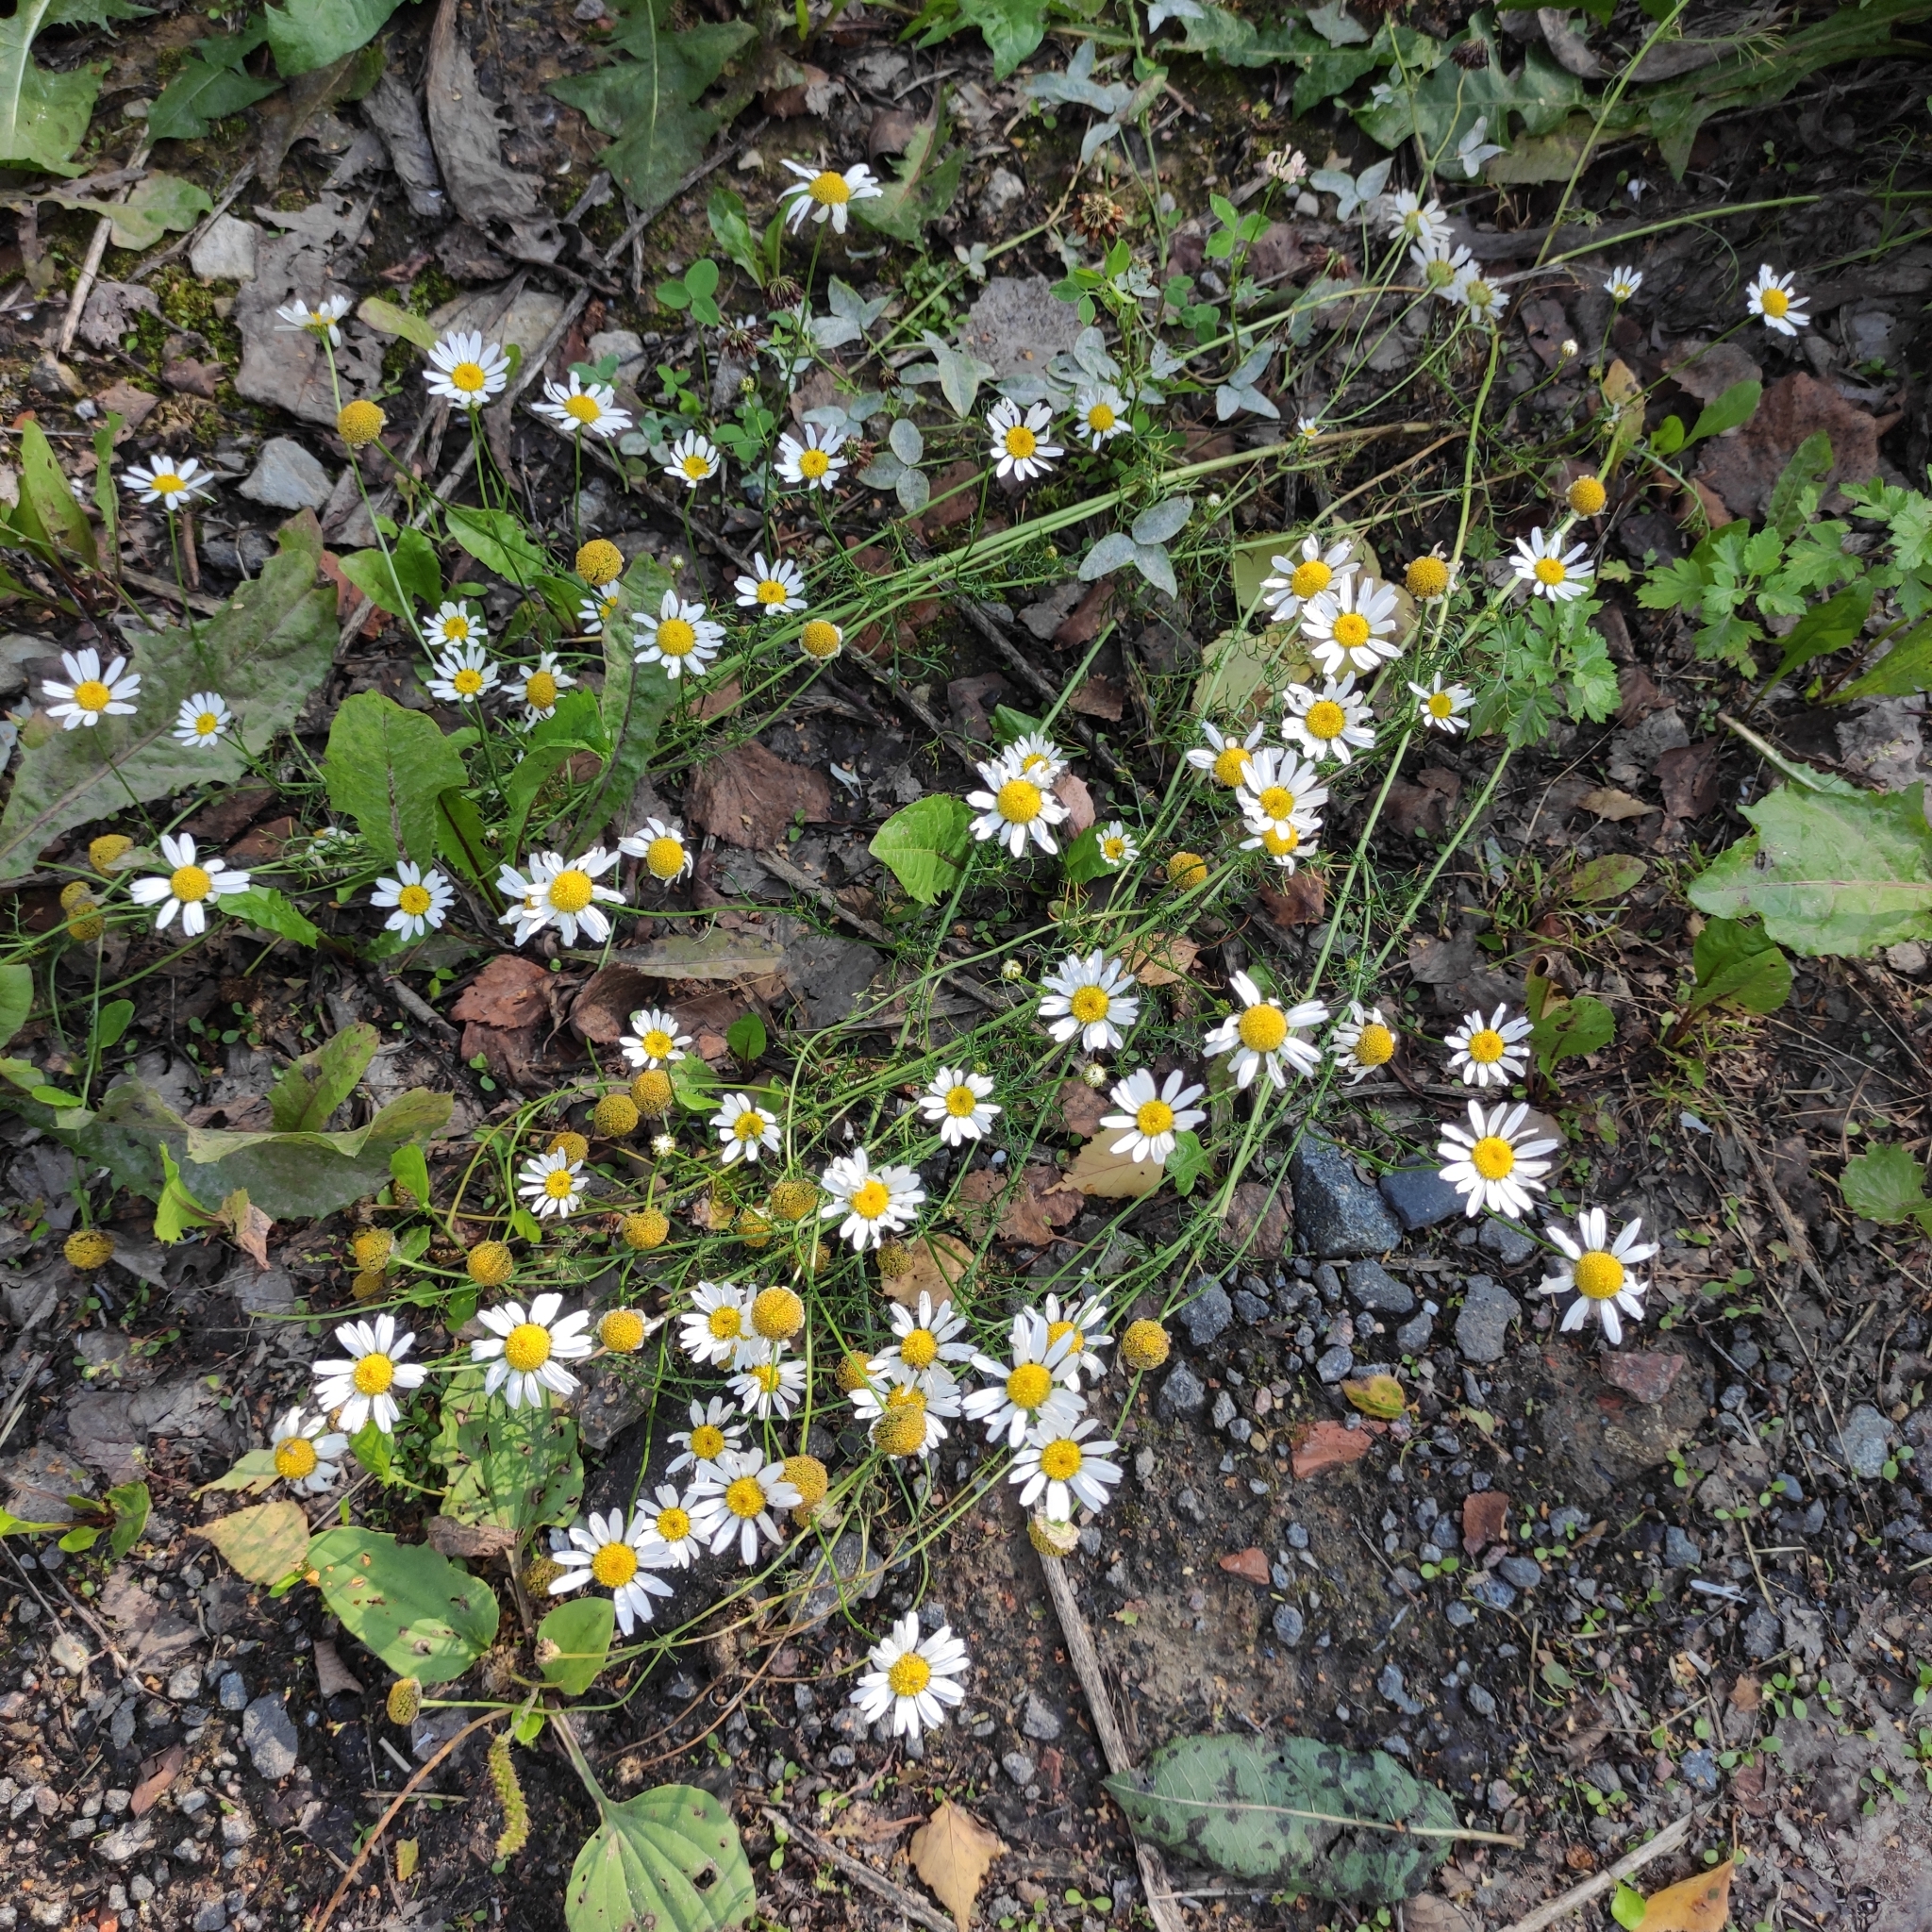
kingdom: Plantae
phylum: Tracheophyta
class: Magnoliopsida
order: Asterales
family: Asteraceae
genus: Tripleurospermum
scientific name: Tripleurospermum inodorum
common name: Scentless mayweed
